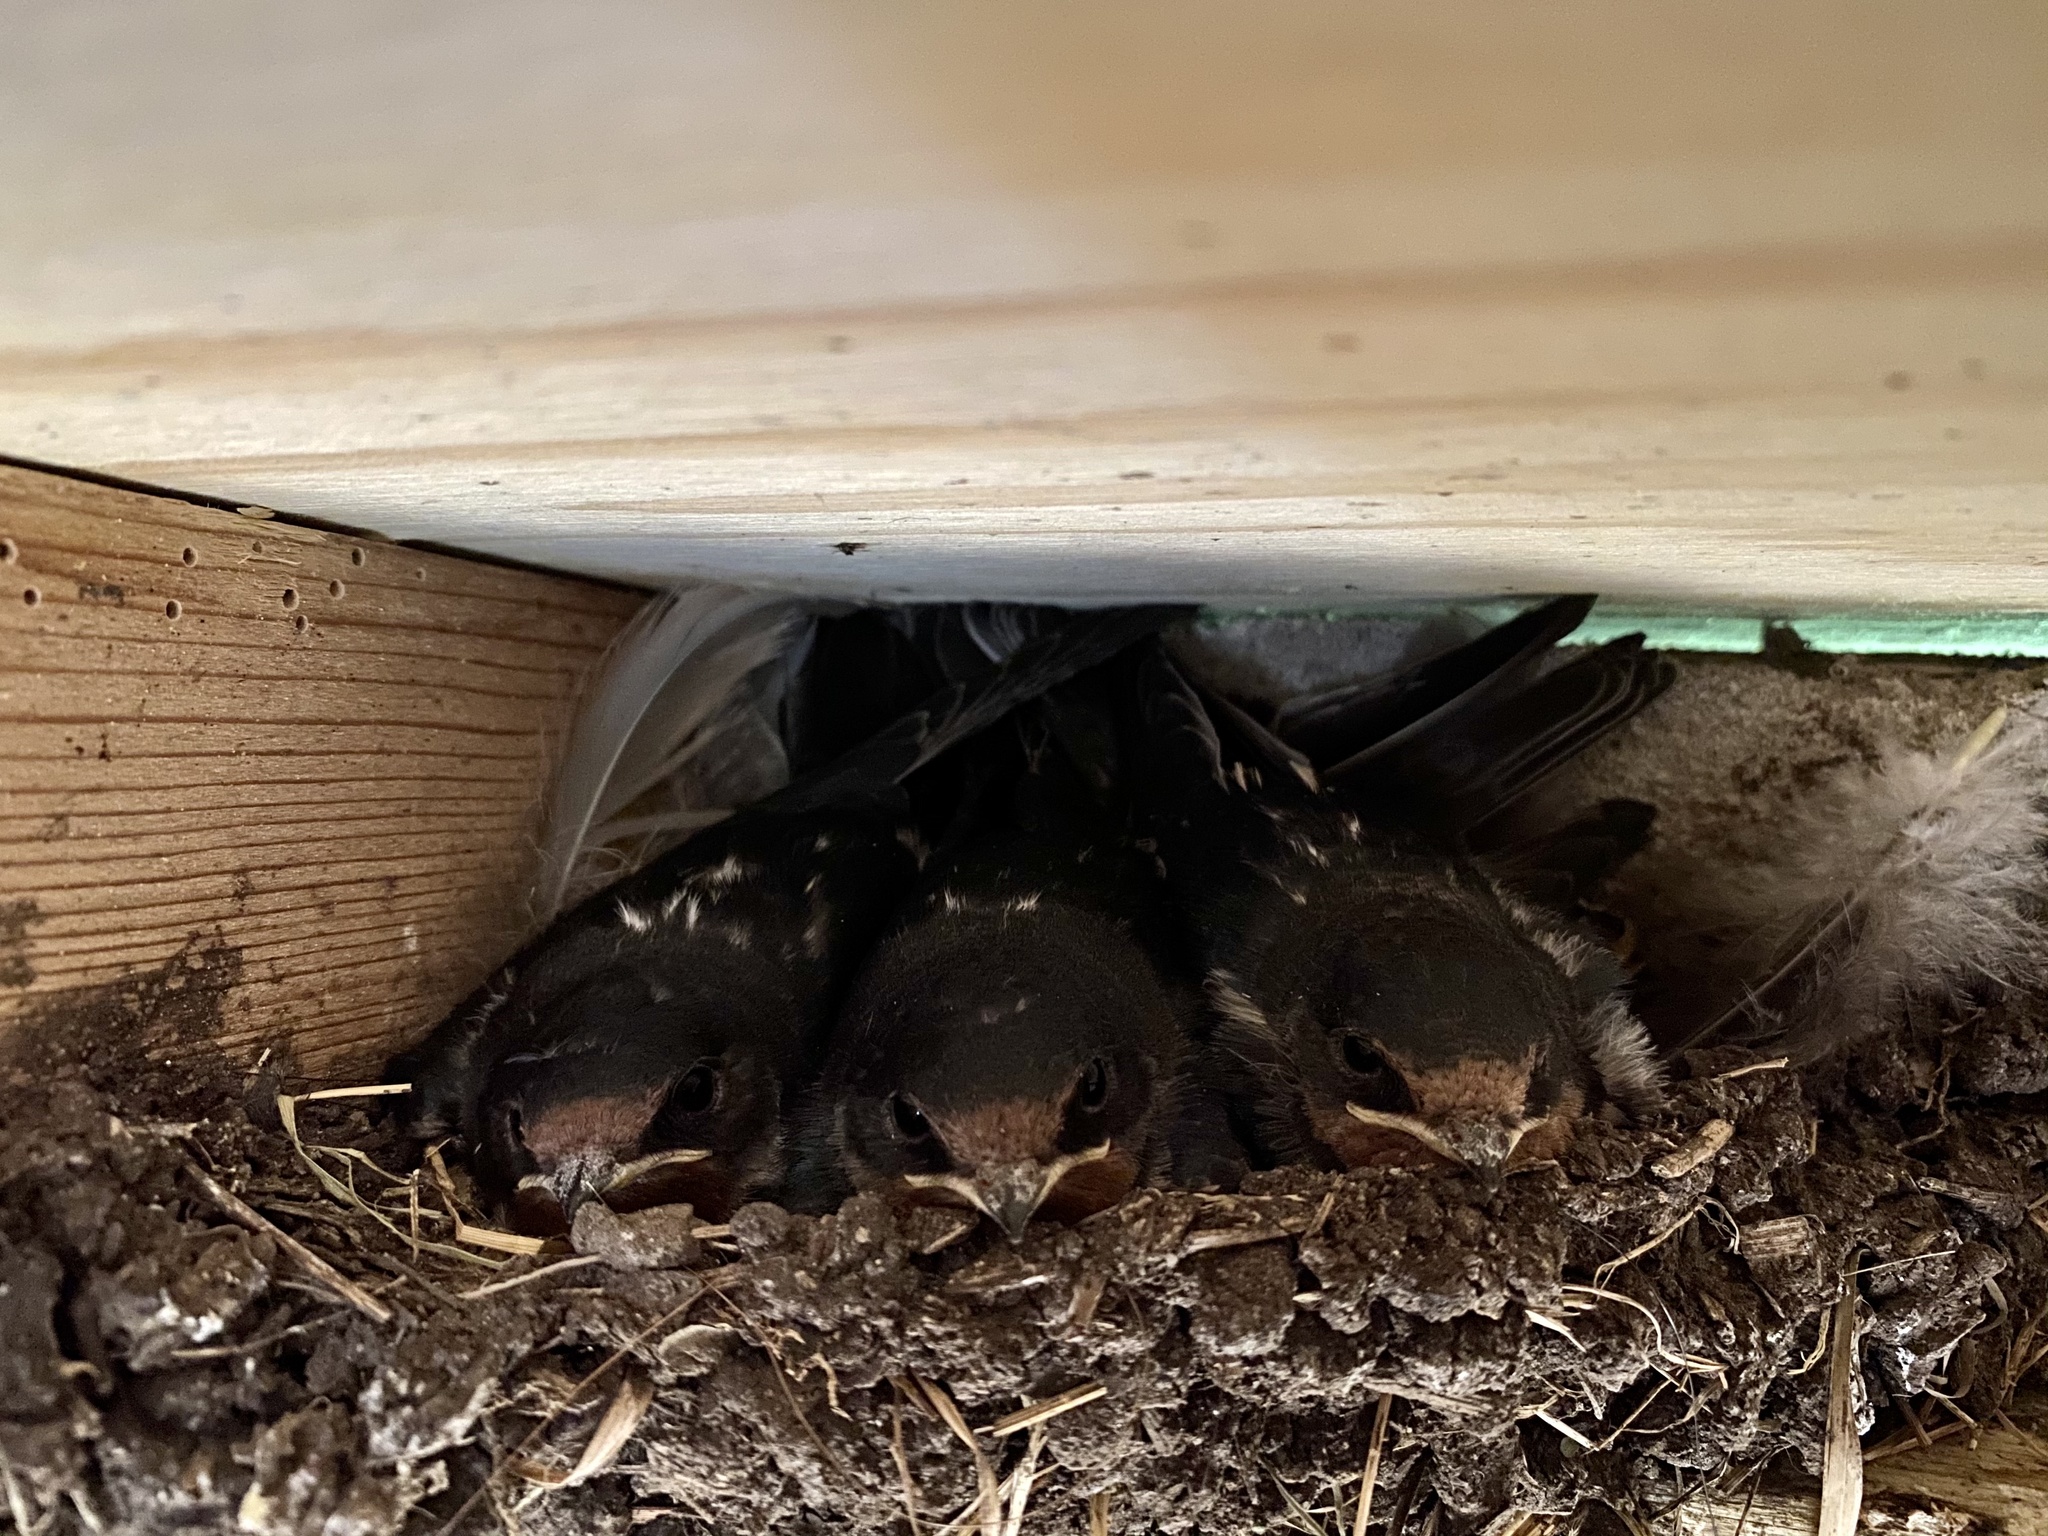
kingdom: Animalia
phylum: Chordata
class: Aves
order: Passeriformes
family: Hirundinidae
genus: Hirundo
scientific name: Hirundo rustica
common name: Barn swallow
